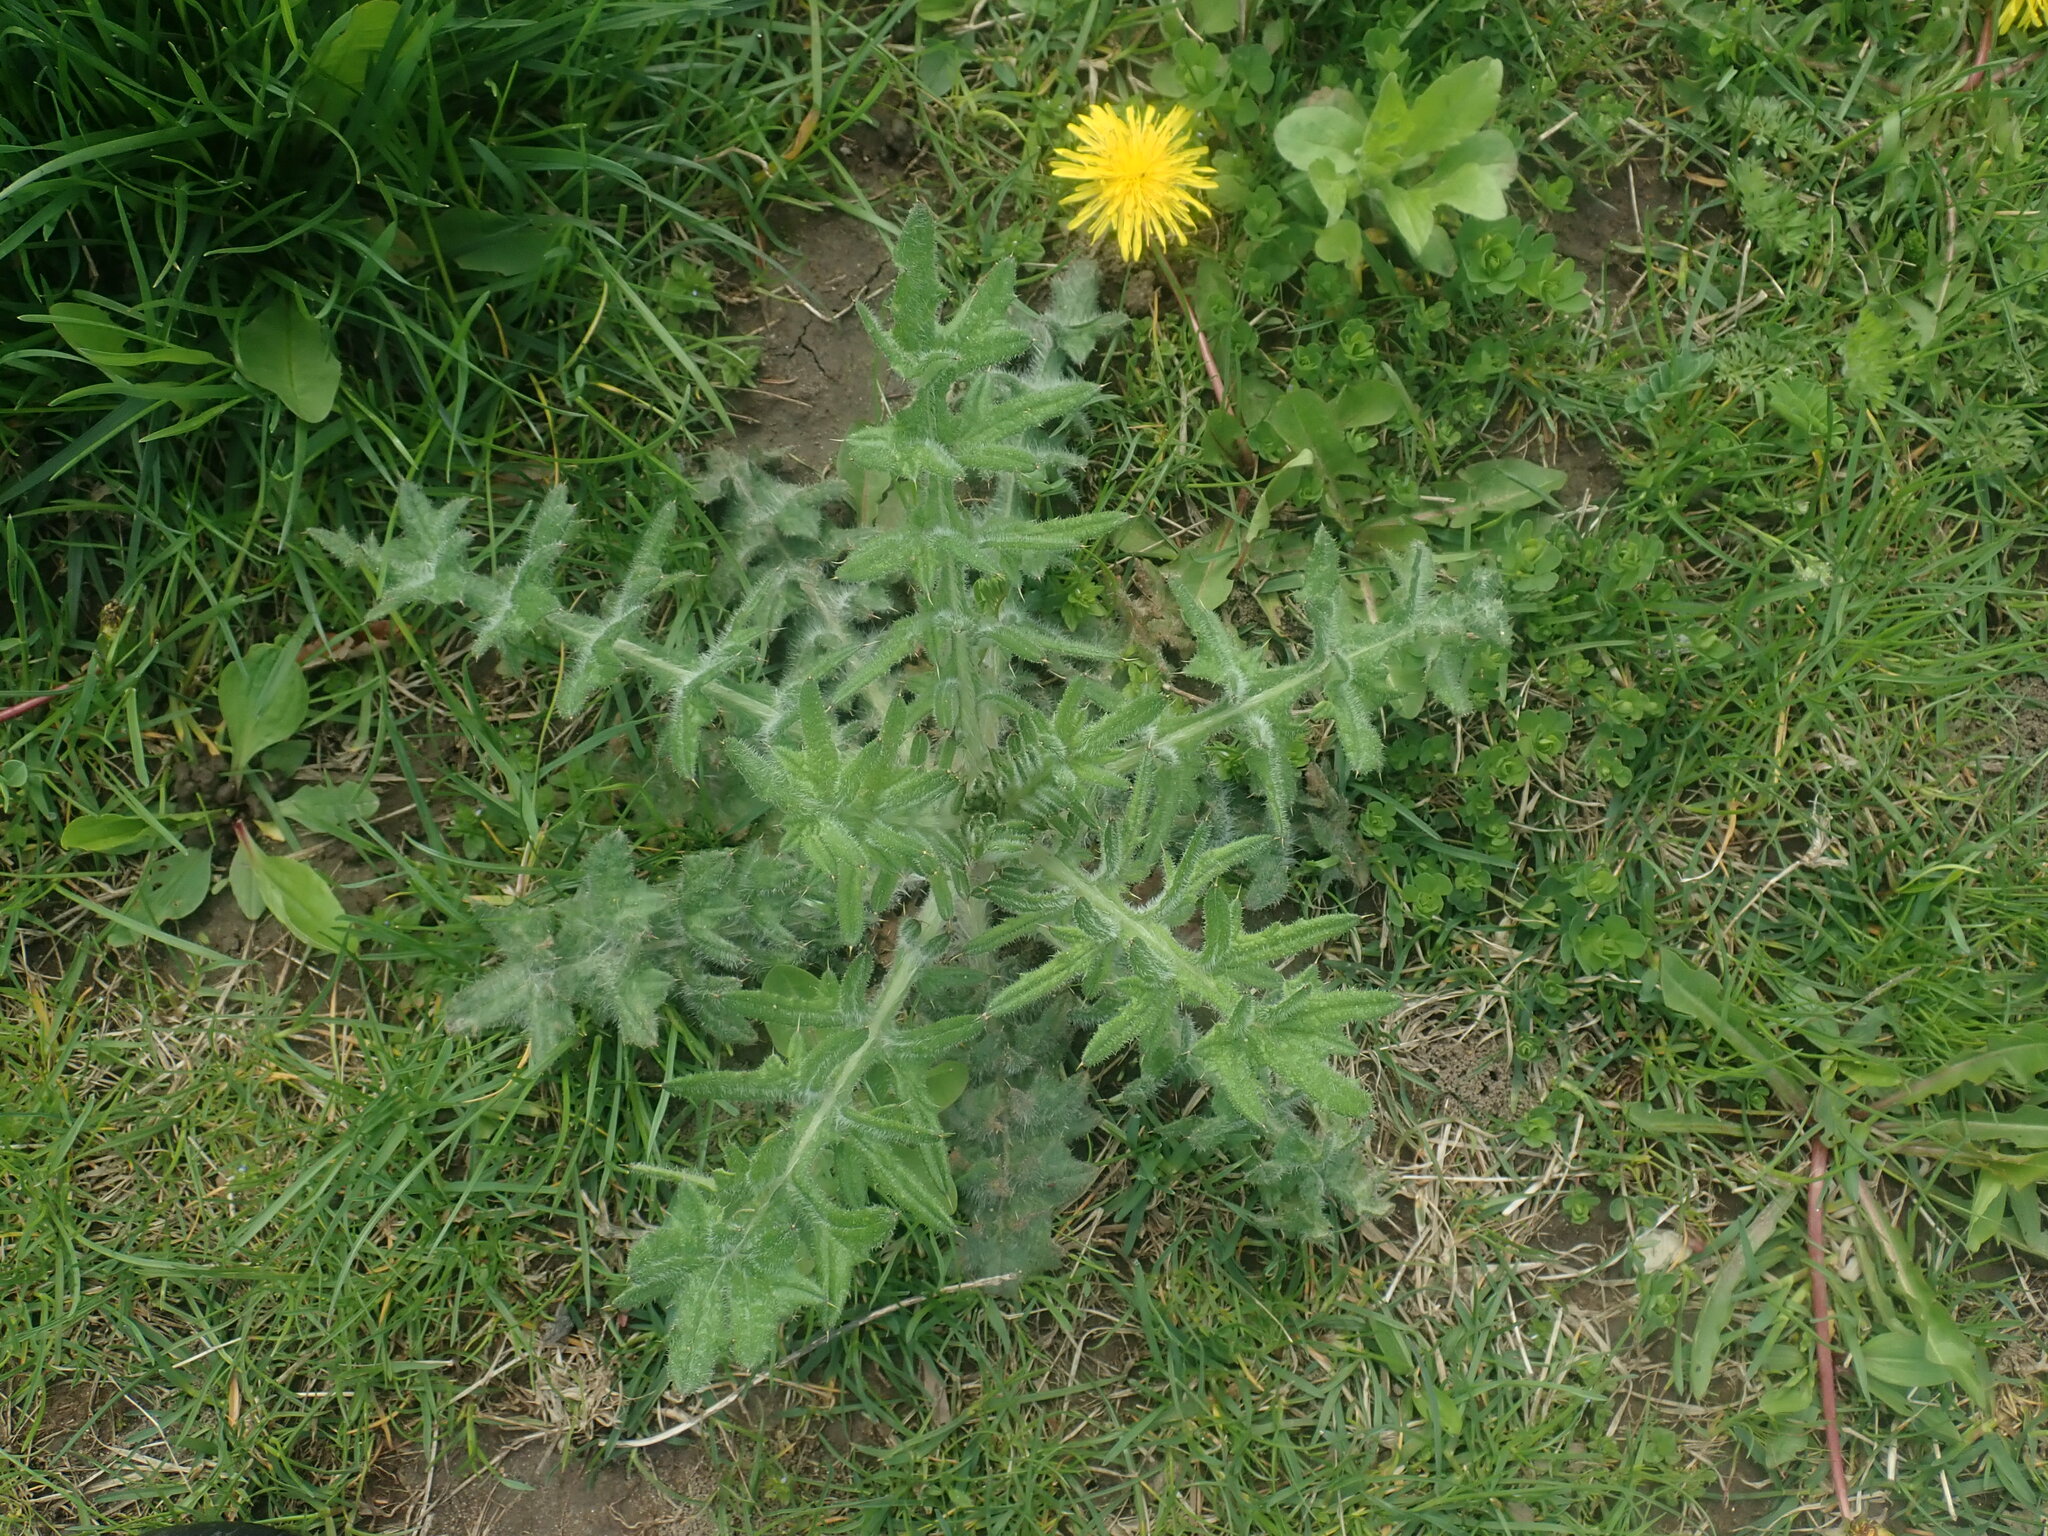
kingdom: Plantae
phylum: Tracheophyta
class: Magnoliopsida
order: Asterales
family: Asteraceae
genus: Cirsium
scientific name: Cirsium vulgare
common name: Bull thistle
